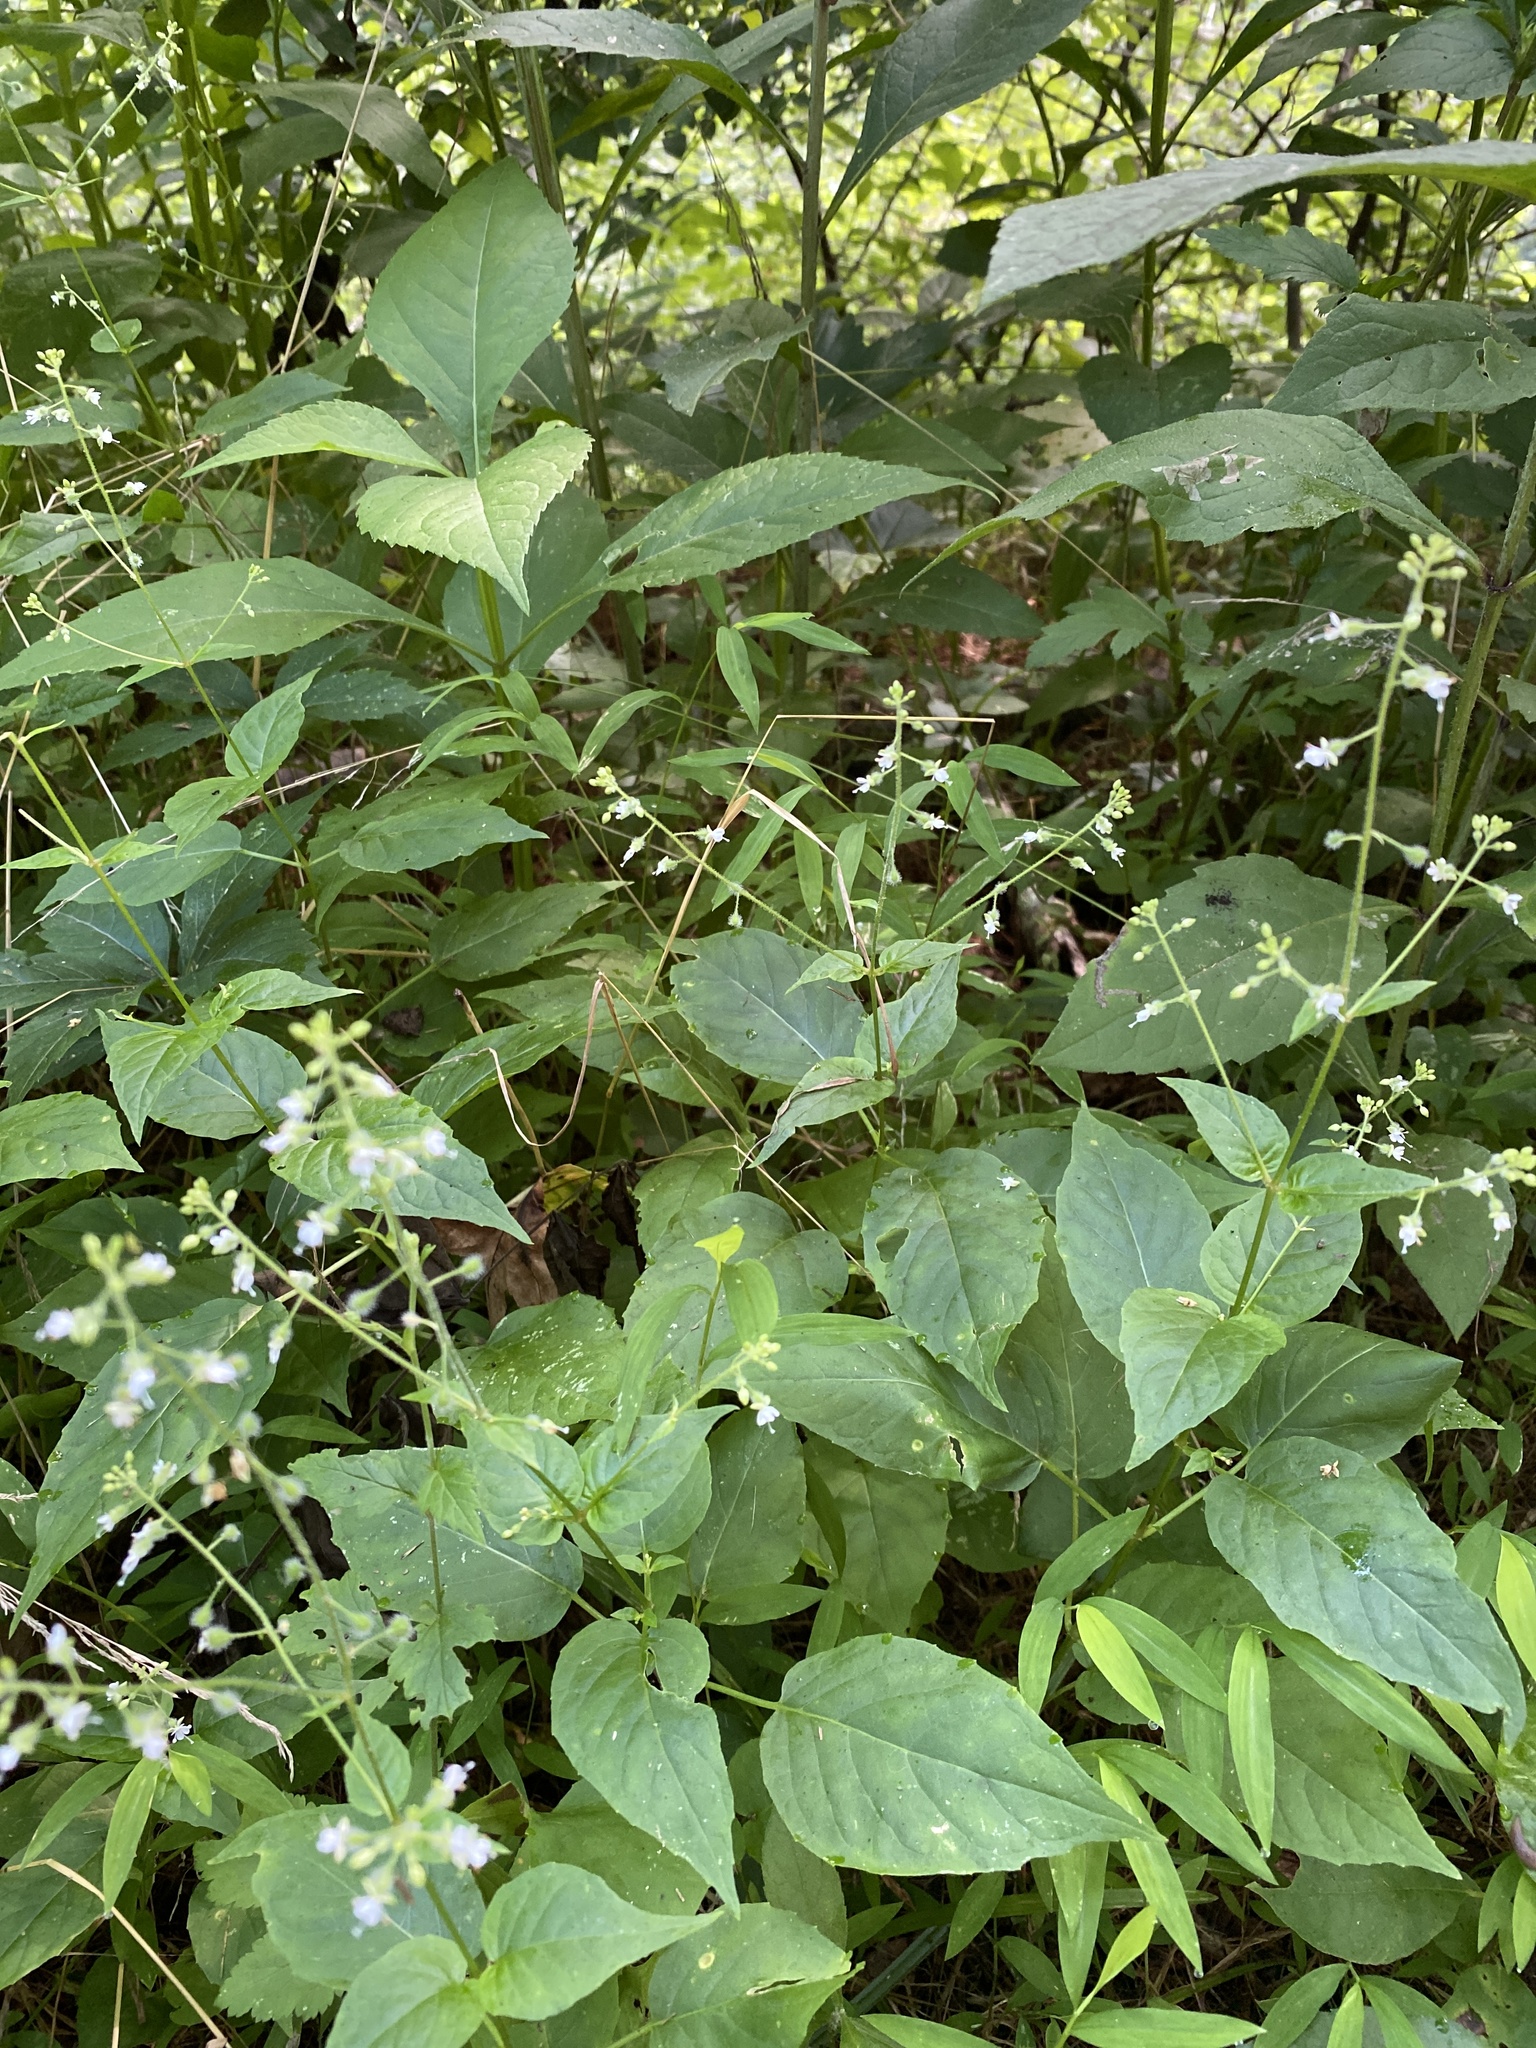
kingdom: Plantae
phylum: Tracheophyta
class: Magnoliopsida
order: Myrtales
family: Onagraceae
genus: Circaea
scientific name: Circaea canadensis
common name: Broad-leaved enchanter's nightshade
